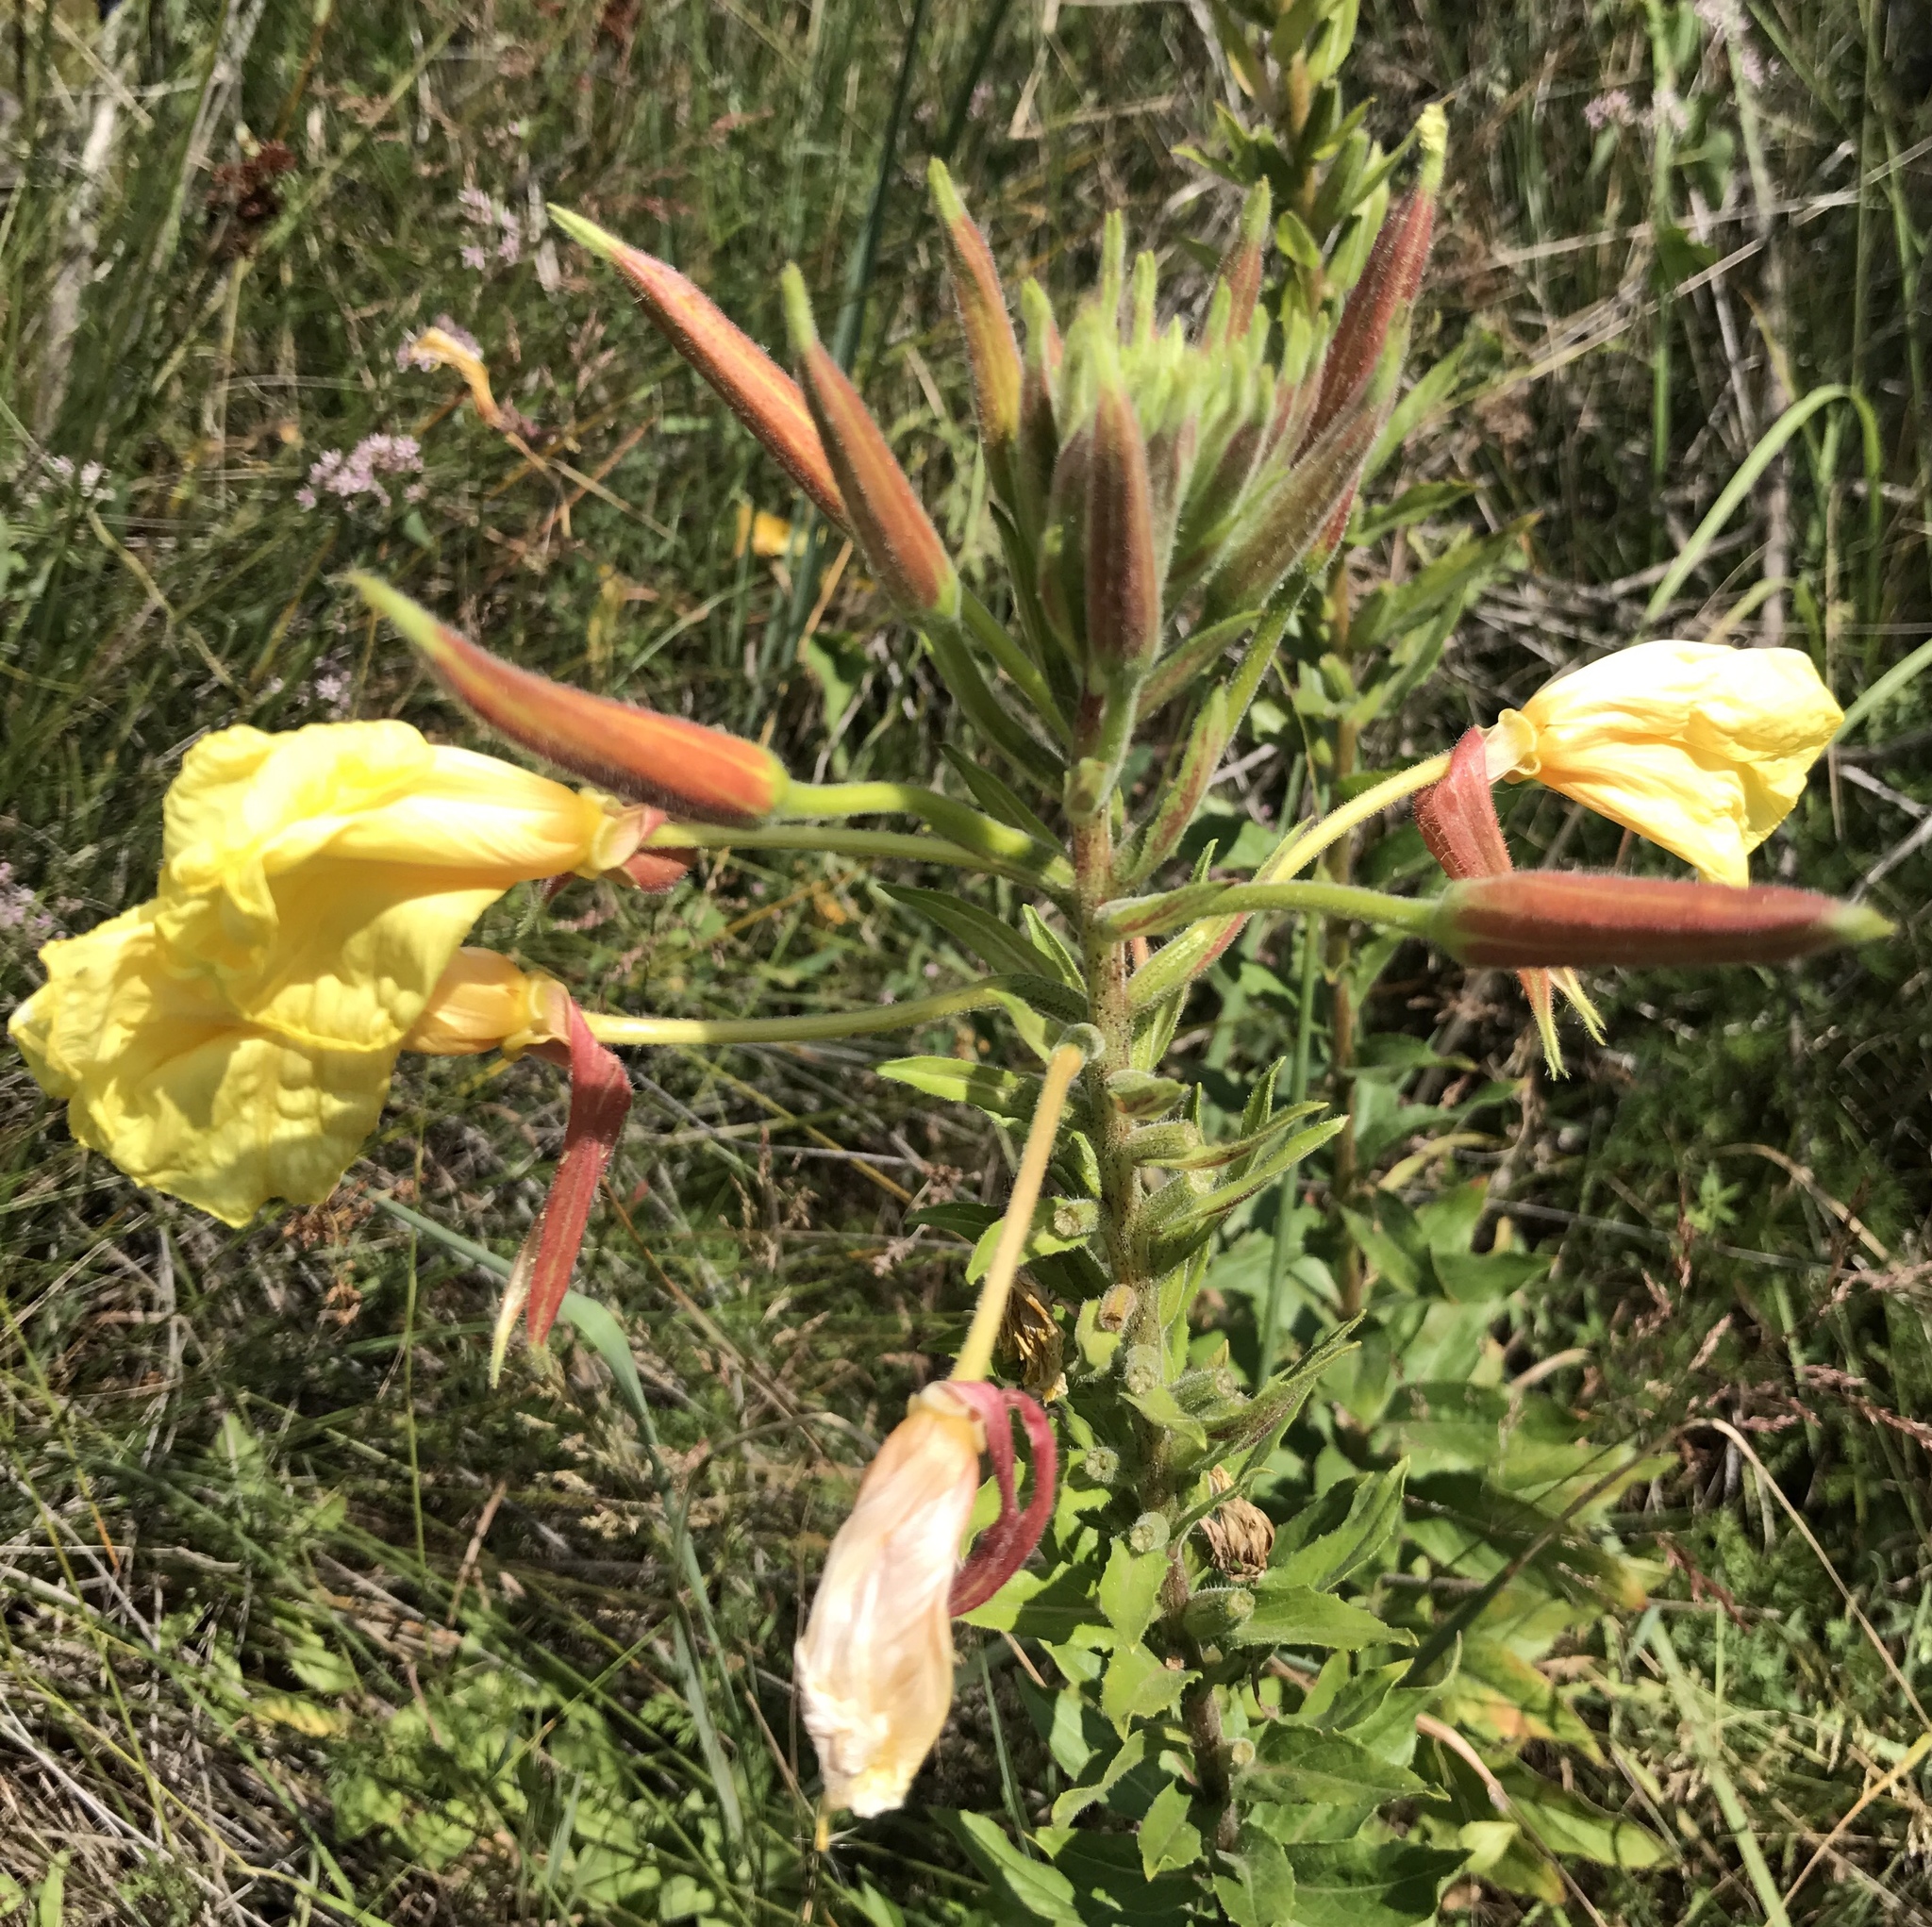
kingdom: Plantae
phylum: Tracheophyta
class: Magnoliopsida
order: Myrtales
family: Onagraceae
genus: Oenothera
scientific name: Oenothera glazioviana
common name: Large-flowered evening-primrose
